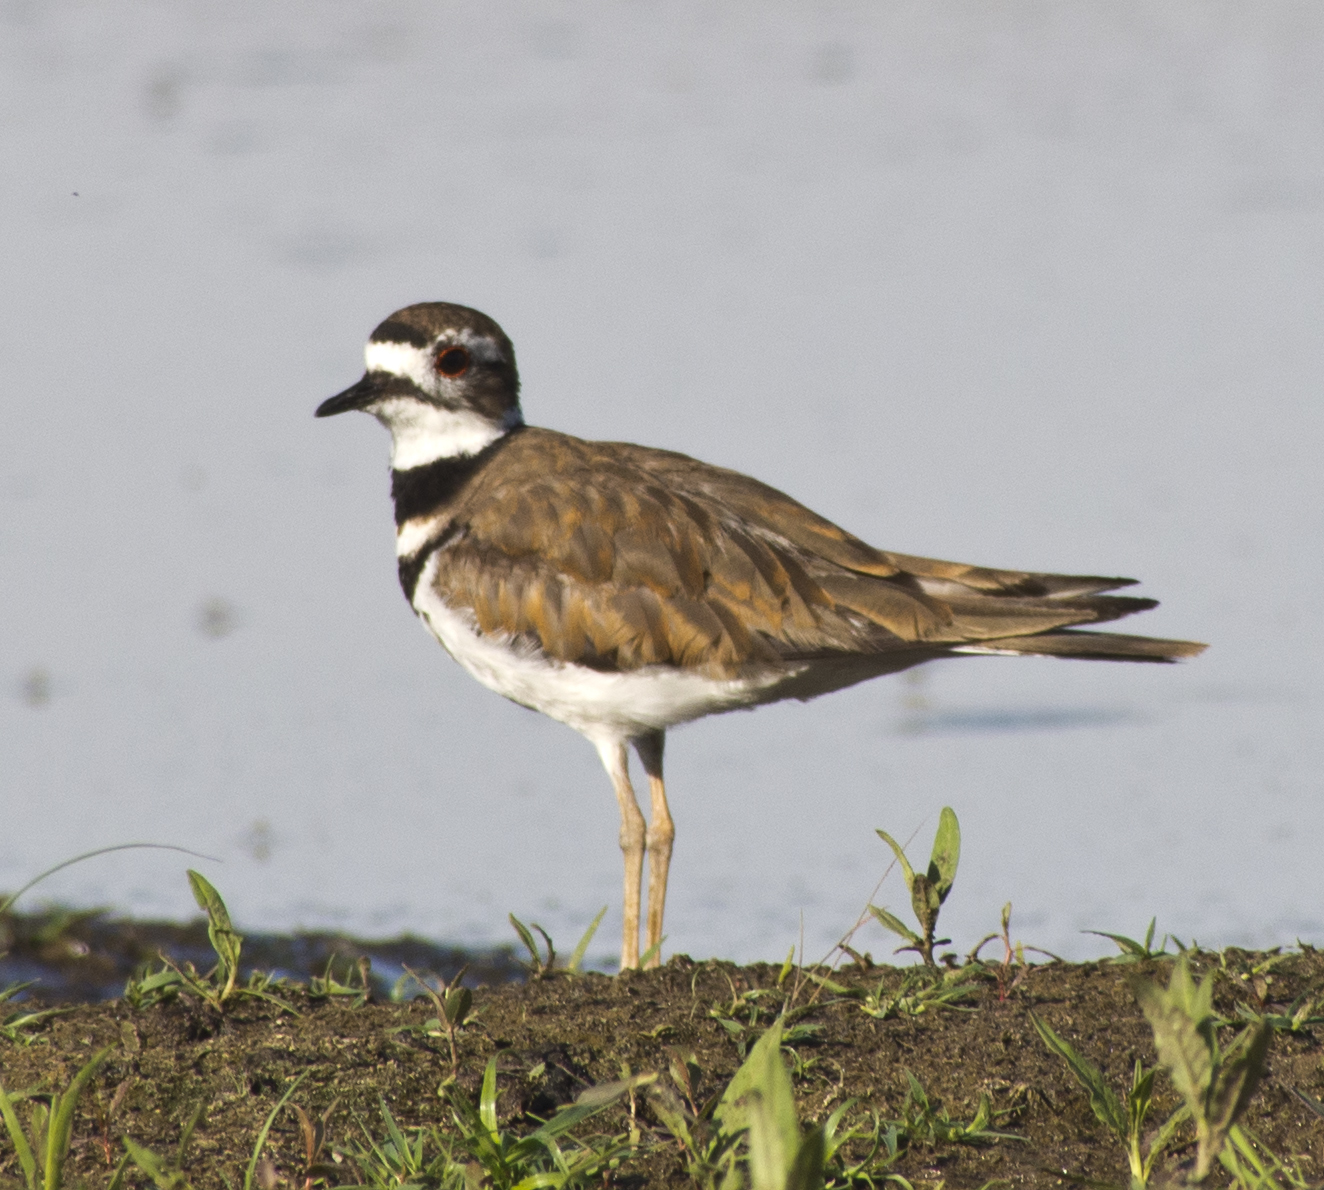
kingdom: Animalia
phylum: Chordata
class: Aves
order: Charadriiformes
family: Charadriidae
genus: Charadrius
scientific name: Charadrius vociferus
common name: Killdeer
